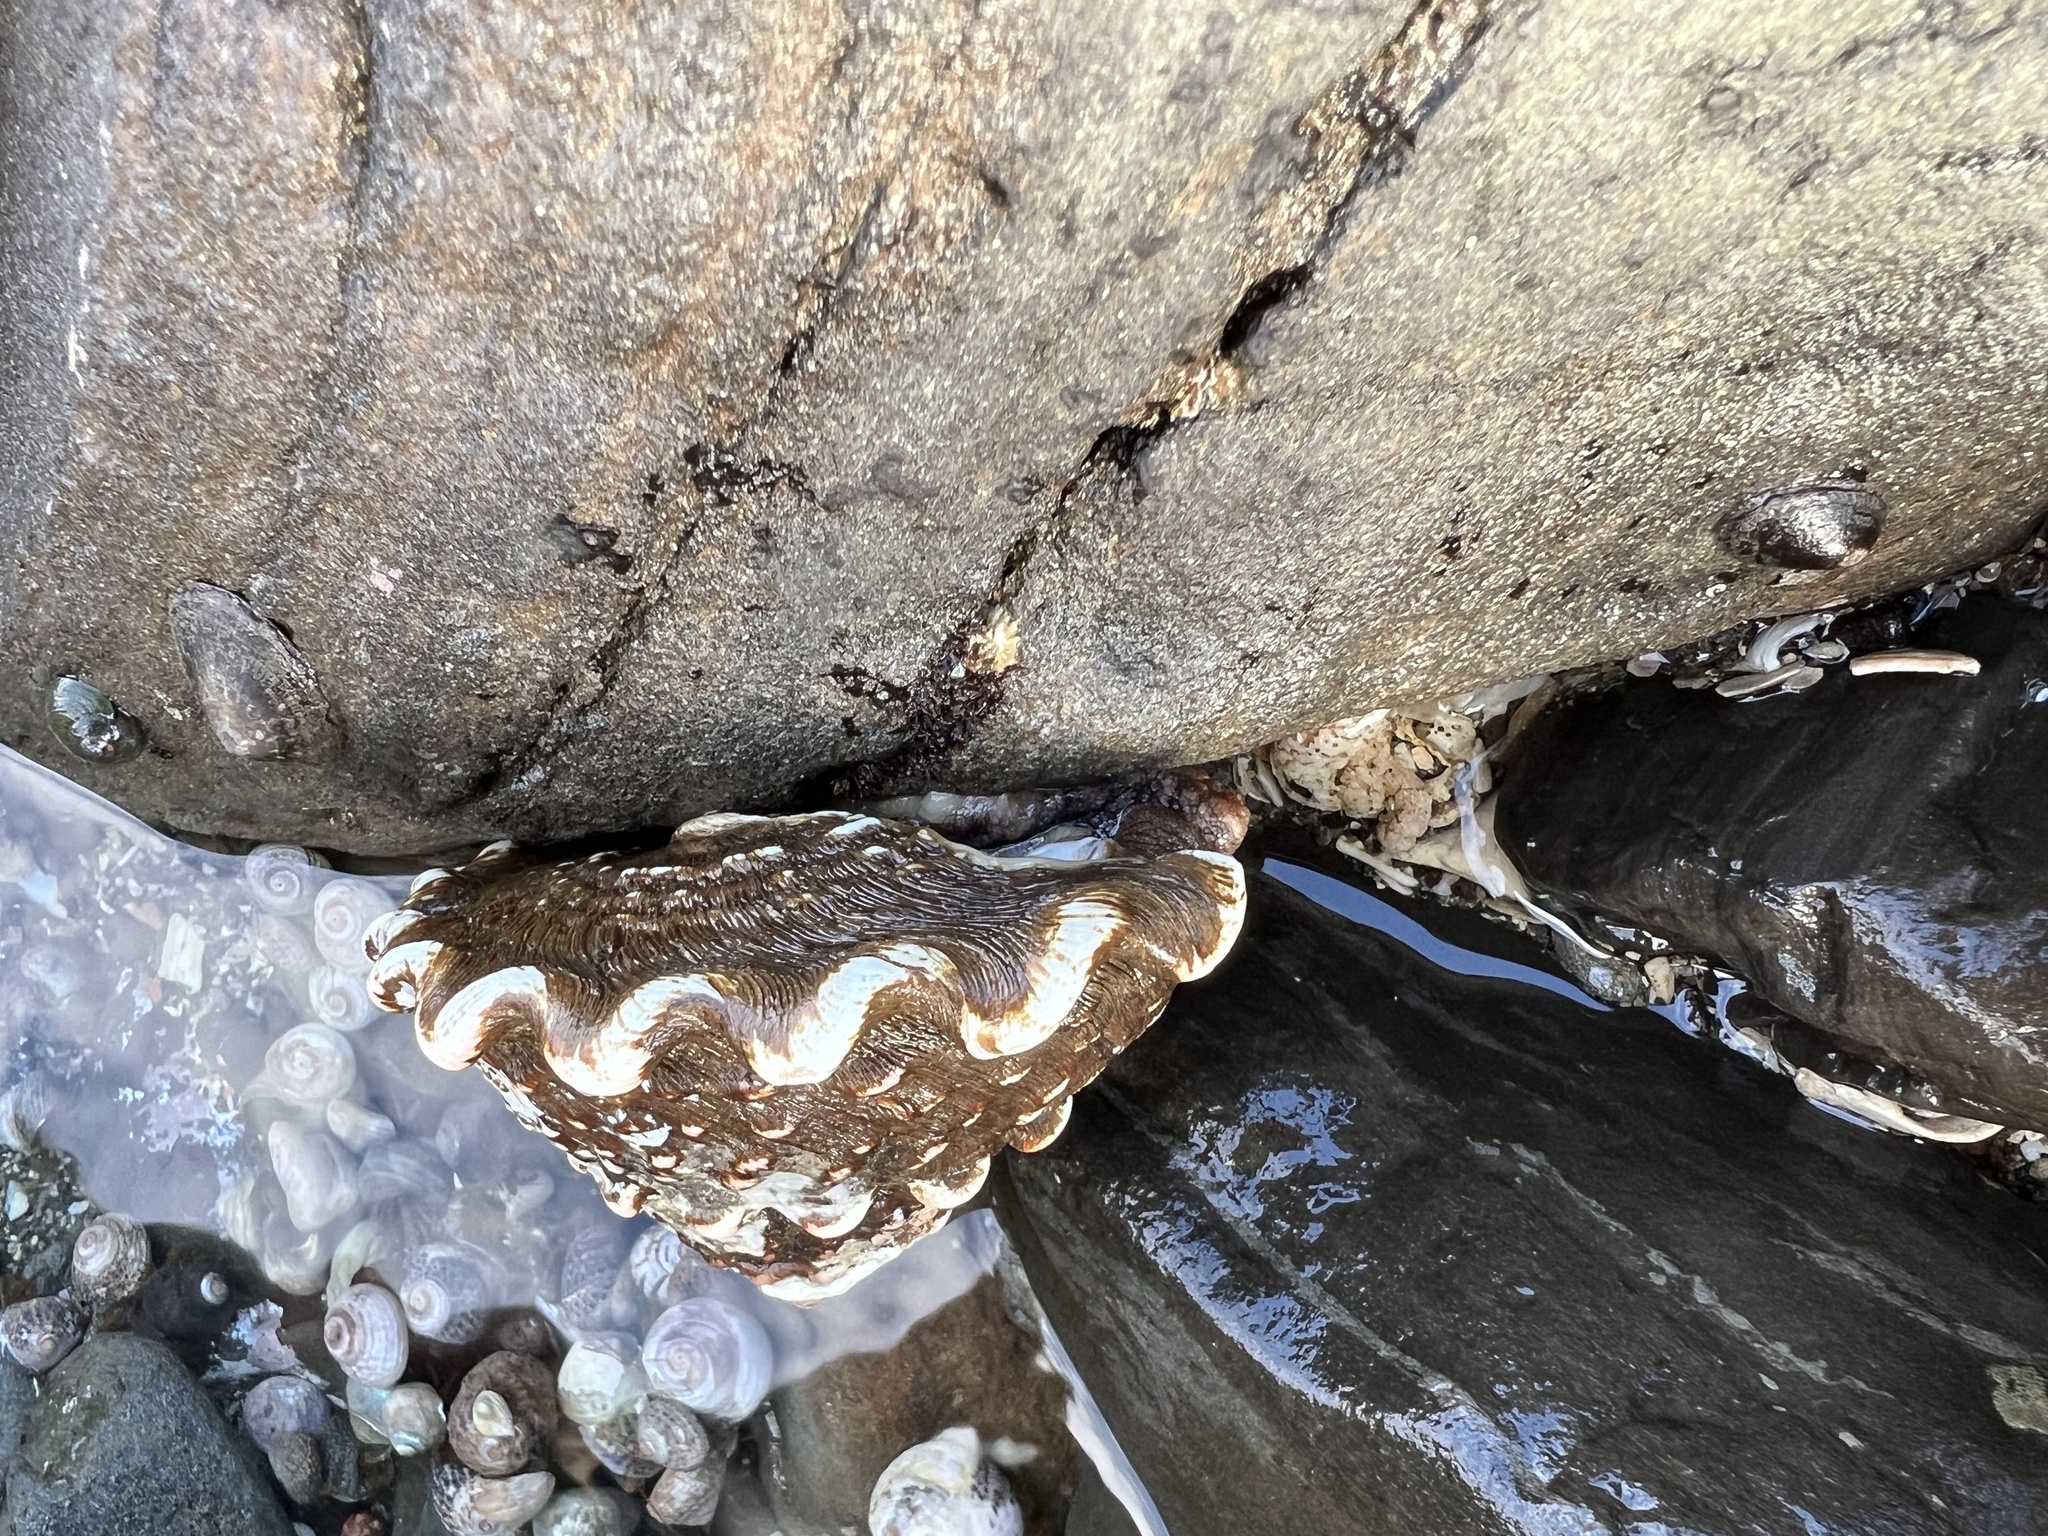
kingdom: Animalia
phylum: Mollusca
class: Gastropoda
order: Trochida
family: Turbinidae
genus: Megastraea
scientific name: Megastraea undosa
